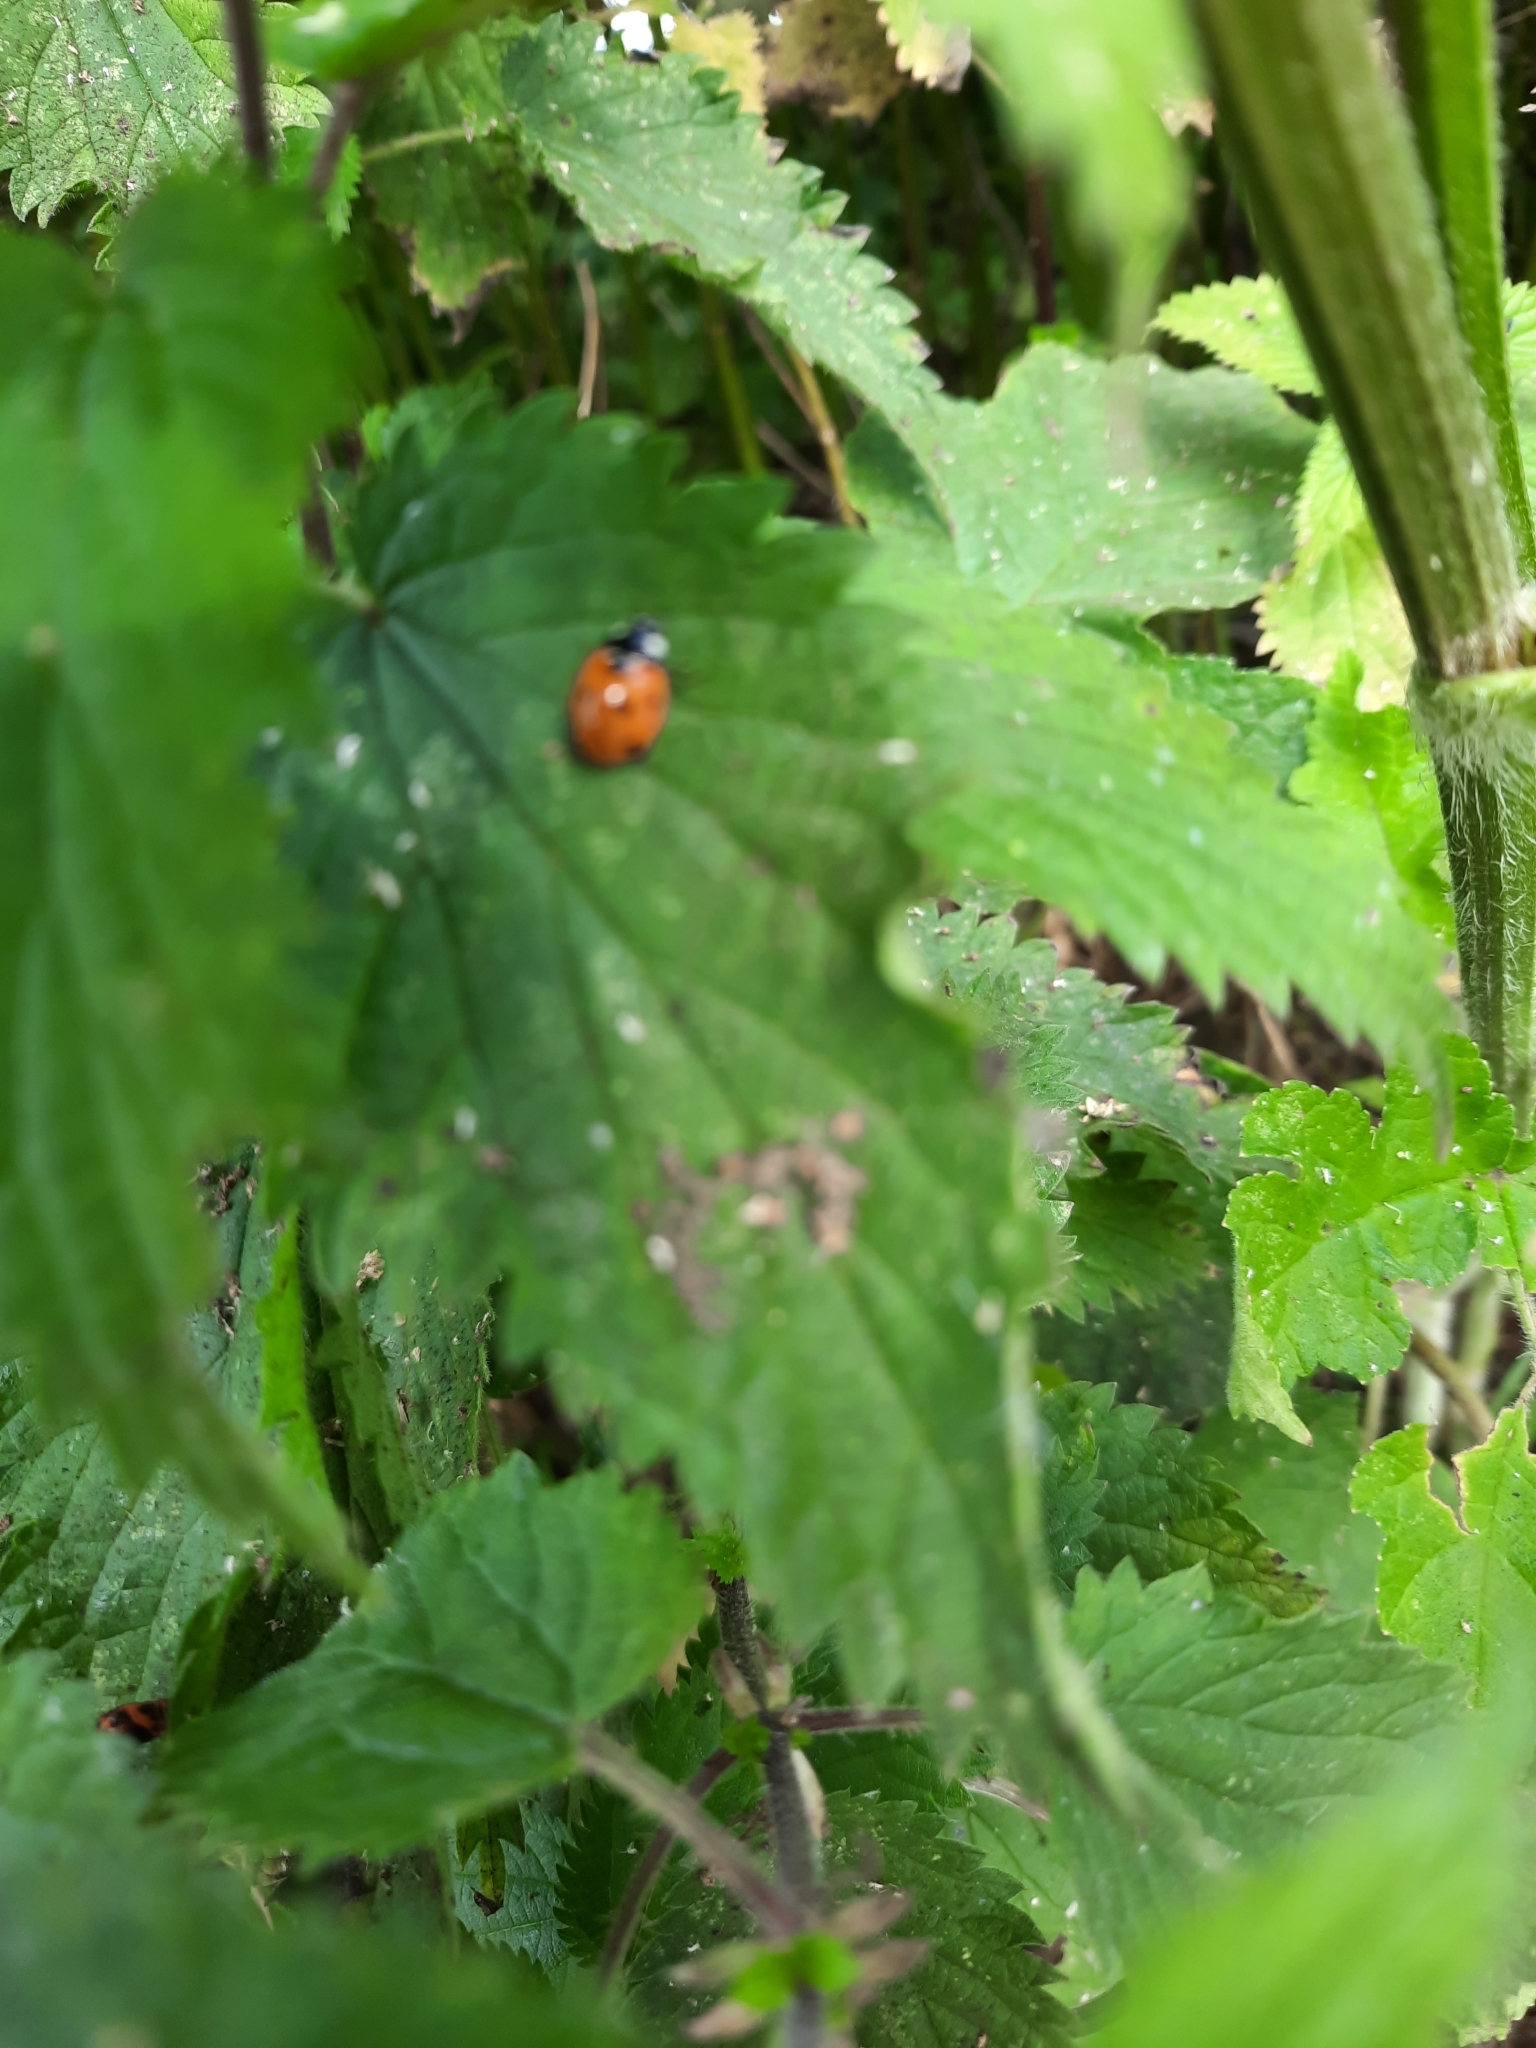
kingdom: Animalia
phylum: Arthropoda
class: Insecta
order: Coleoptera
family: Coccinellidae
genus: Coccinella
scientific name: Coccinella septempunctata
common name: Sevenspotted lady beetle
